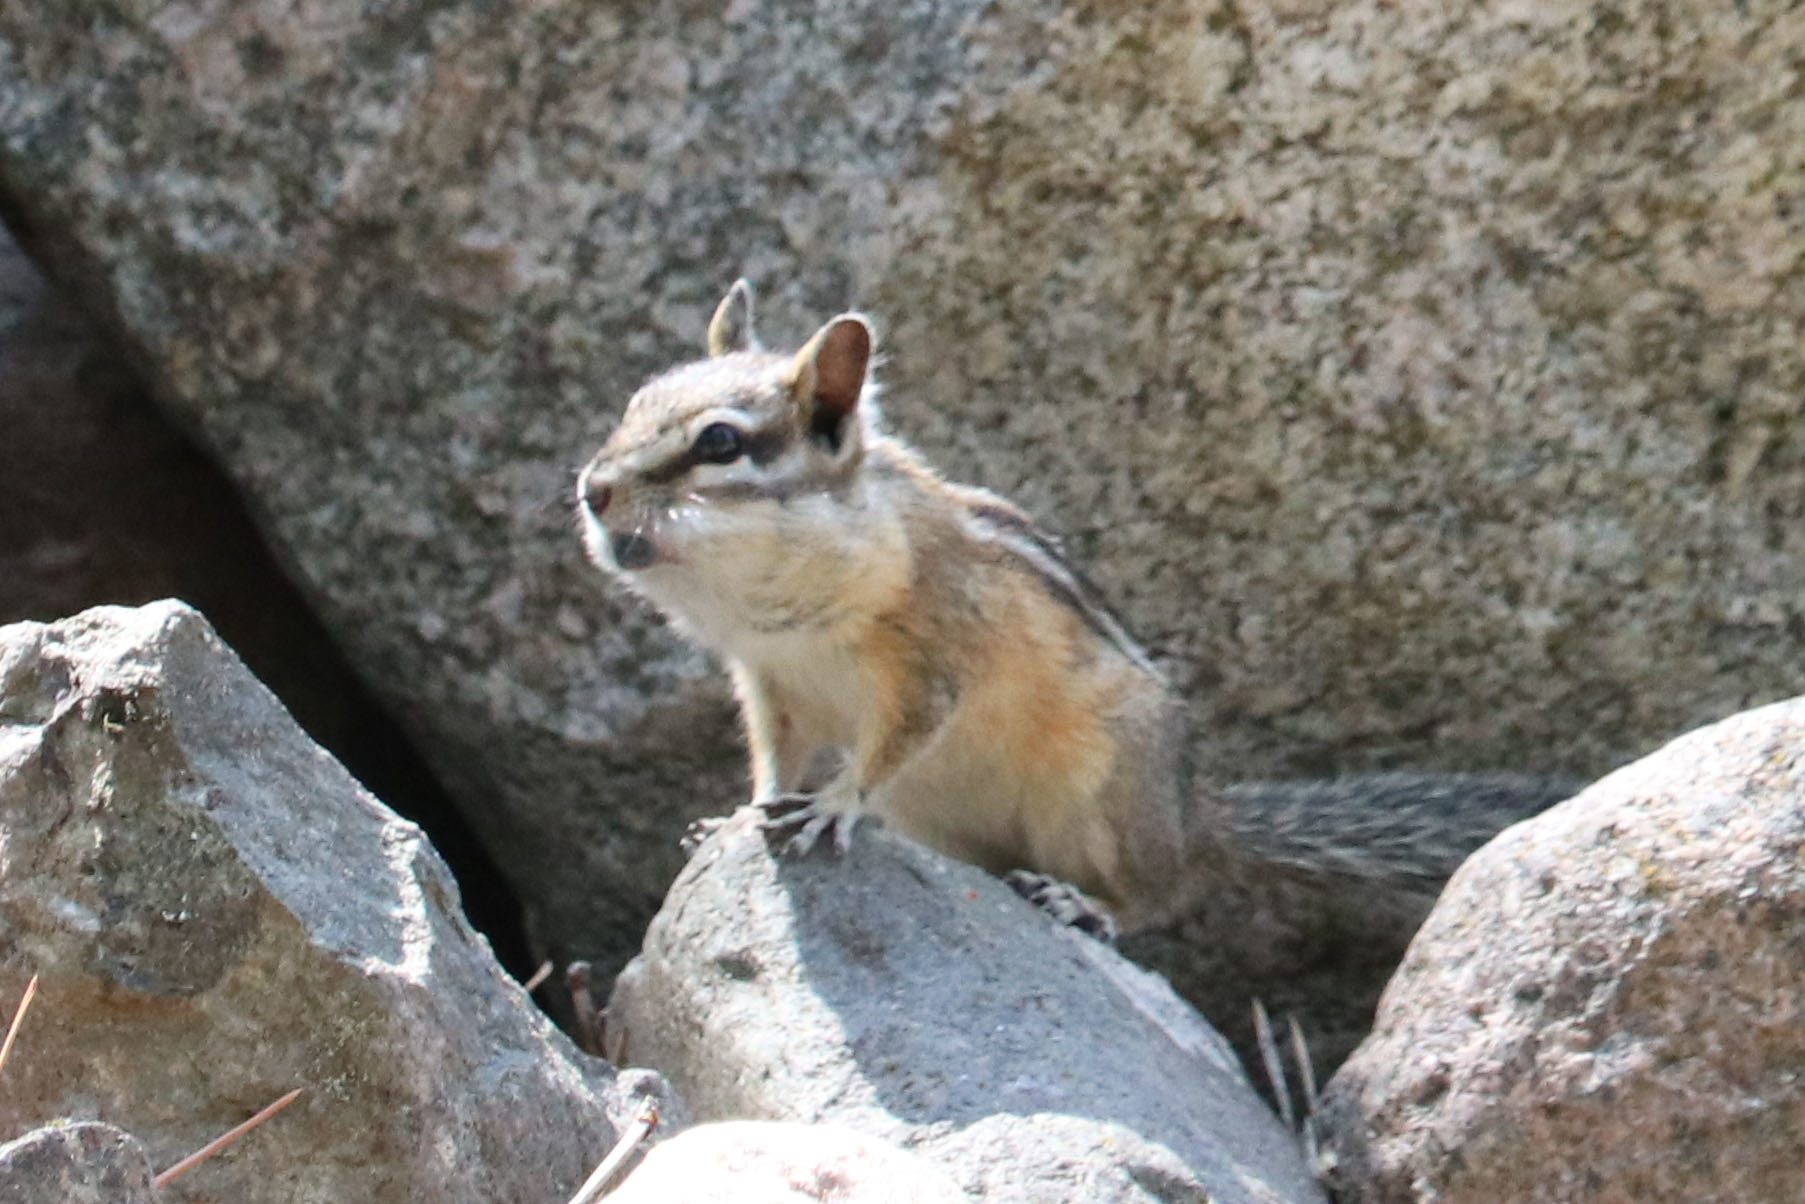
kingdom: Animalia
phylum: Chordata
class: Mammalia
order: Rodentia
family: Sciuridae
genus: Tamias
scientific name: Tamias amoenus
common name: Yellow-pine chipmunk
